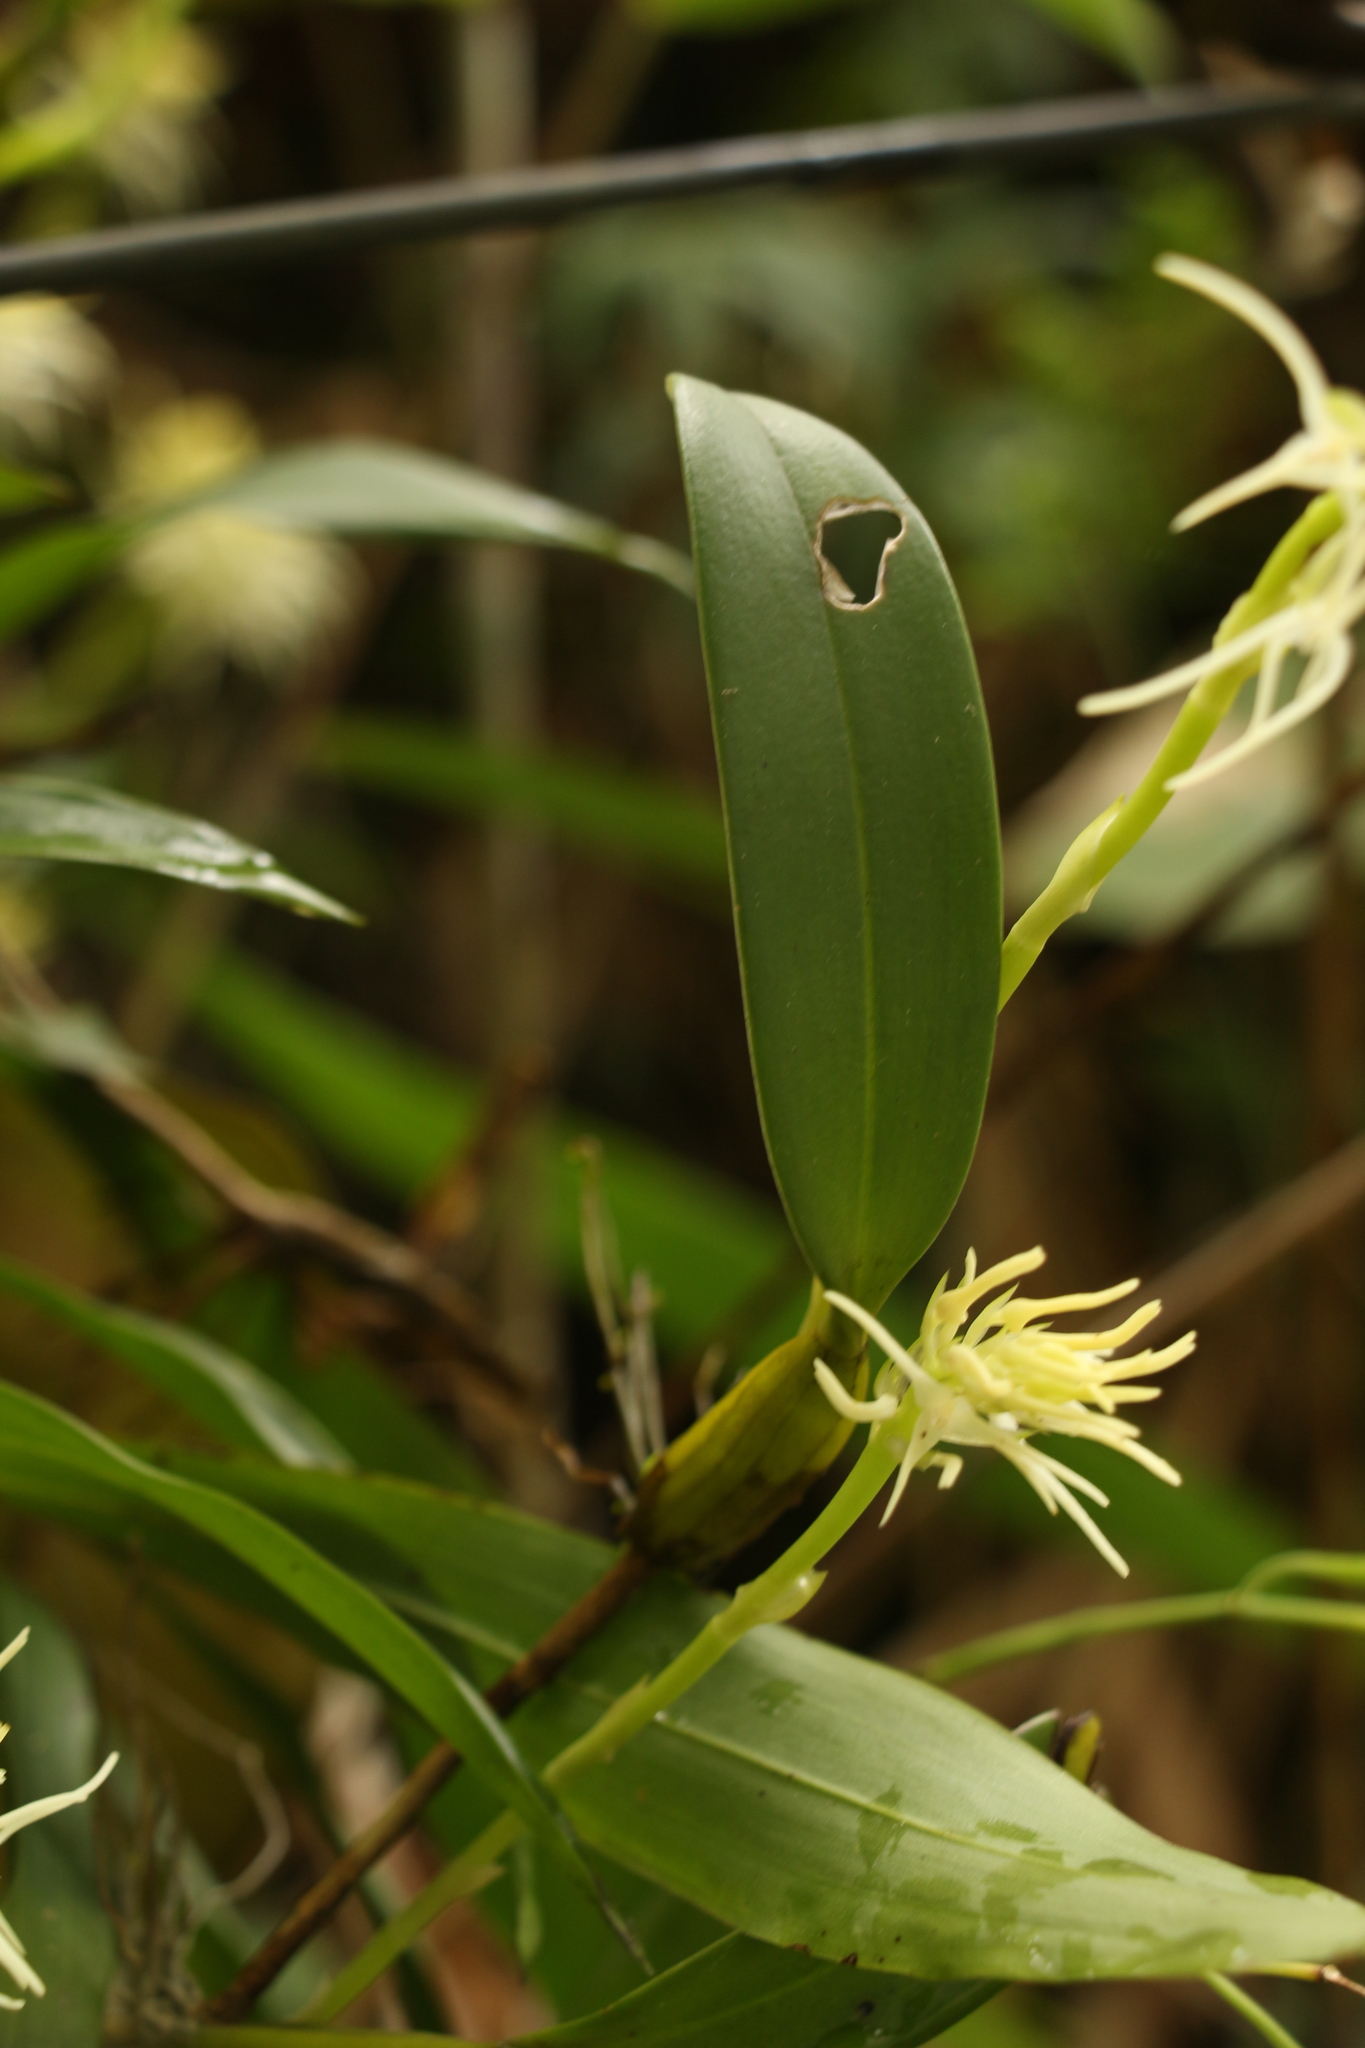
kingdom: Plantae
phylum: Tracheophyta
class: Liliopsida
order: Asparagales
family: Orchidaceae
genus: Bulbophyllum
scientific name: Bulbophyllum cauliflorum
